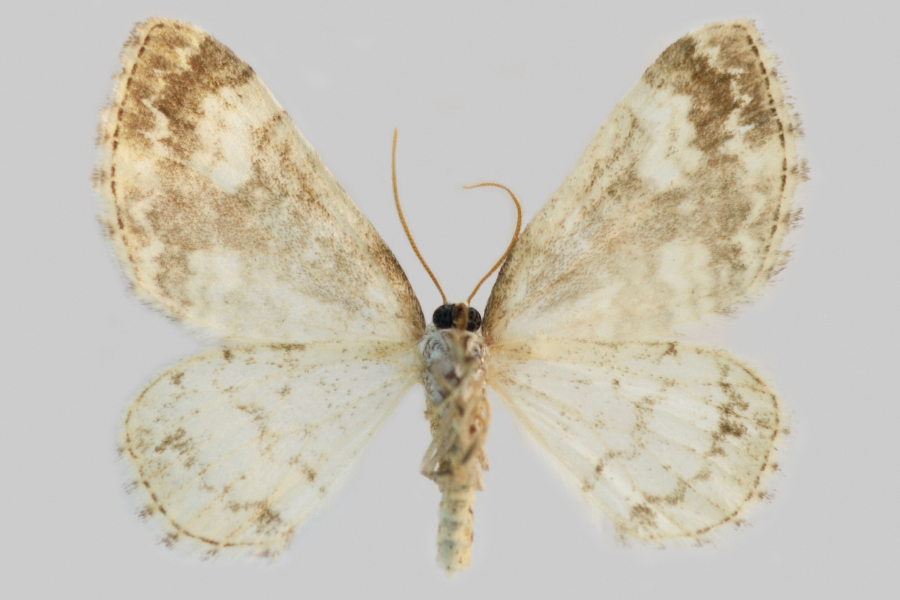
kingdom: Animalia
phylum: Arthropoda
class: Insecta
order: Lepidoptera
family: Geometridae
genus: Perizoma
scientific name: Perizoma flavofasciata
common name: Sandy carpet
